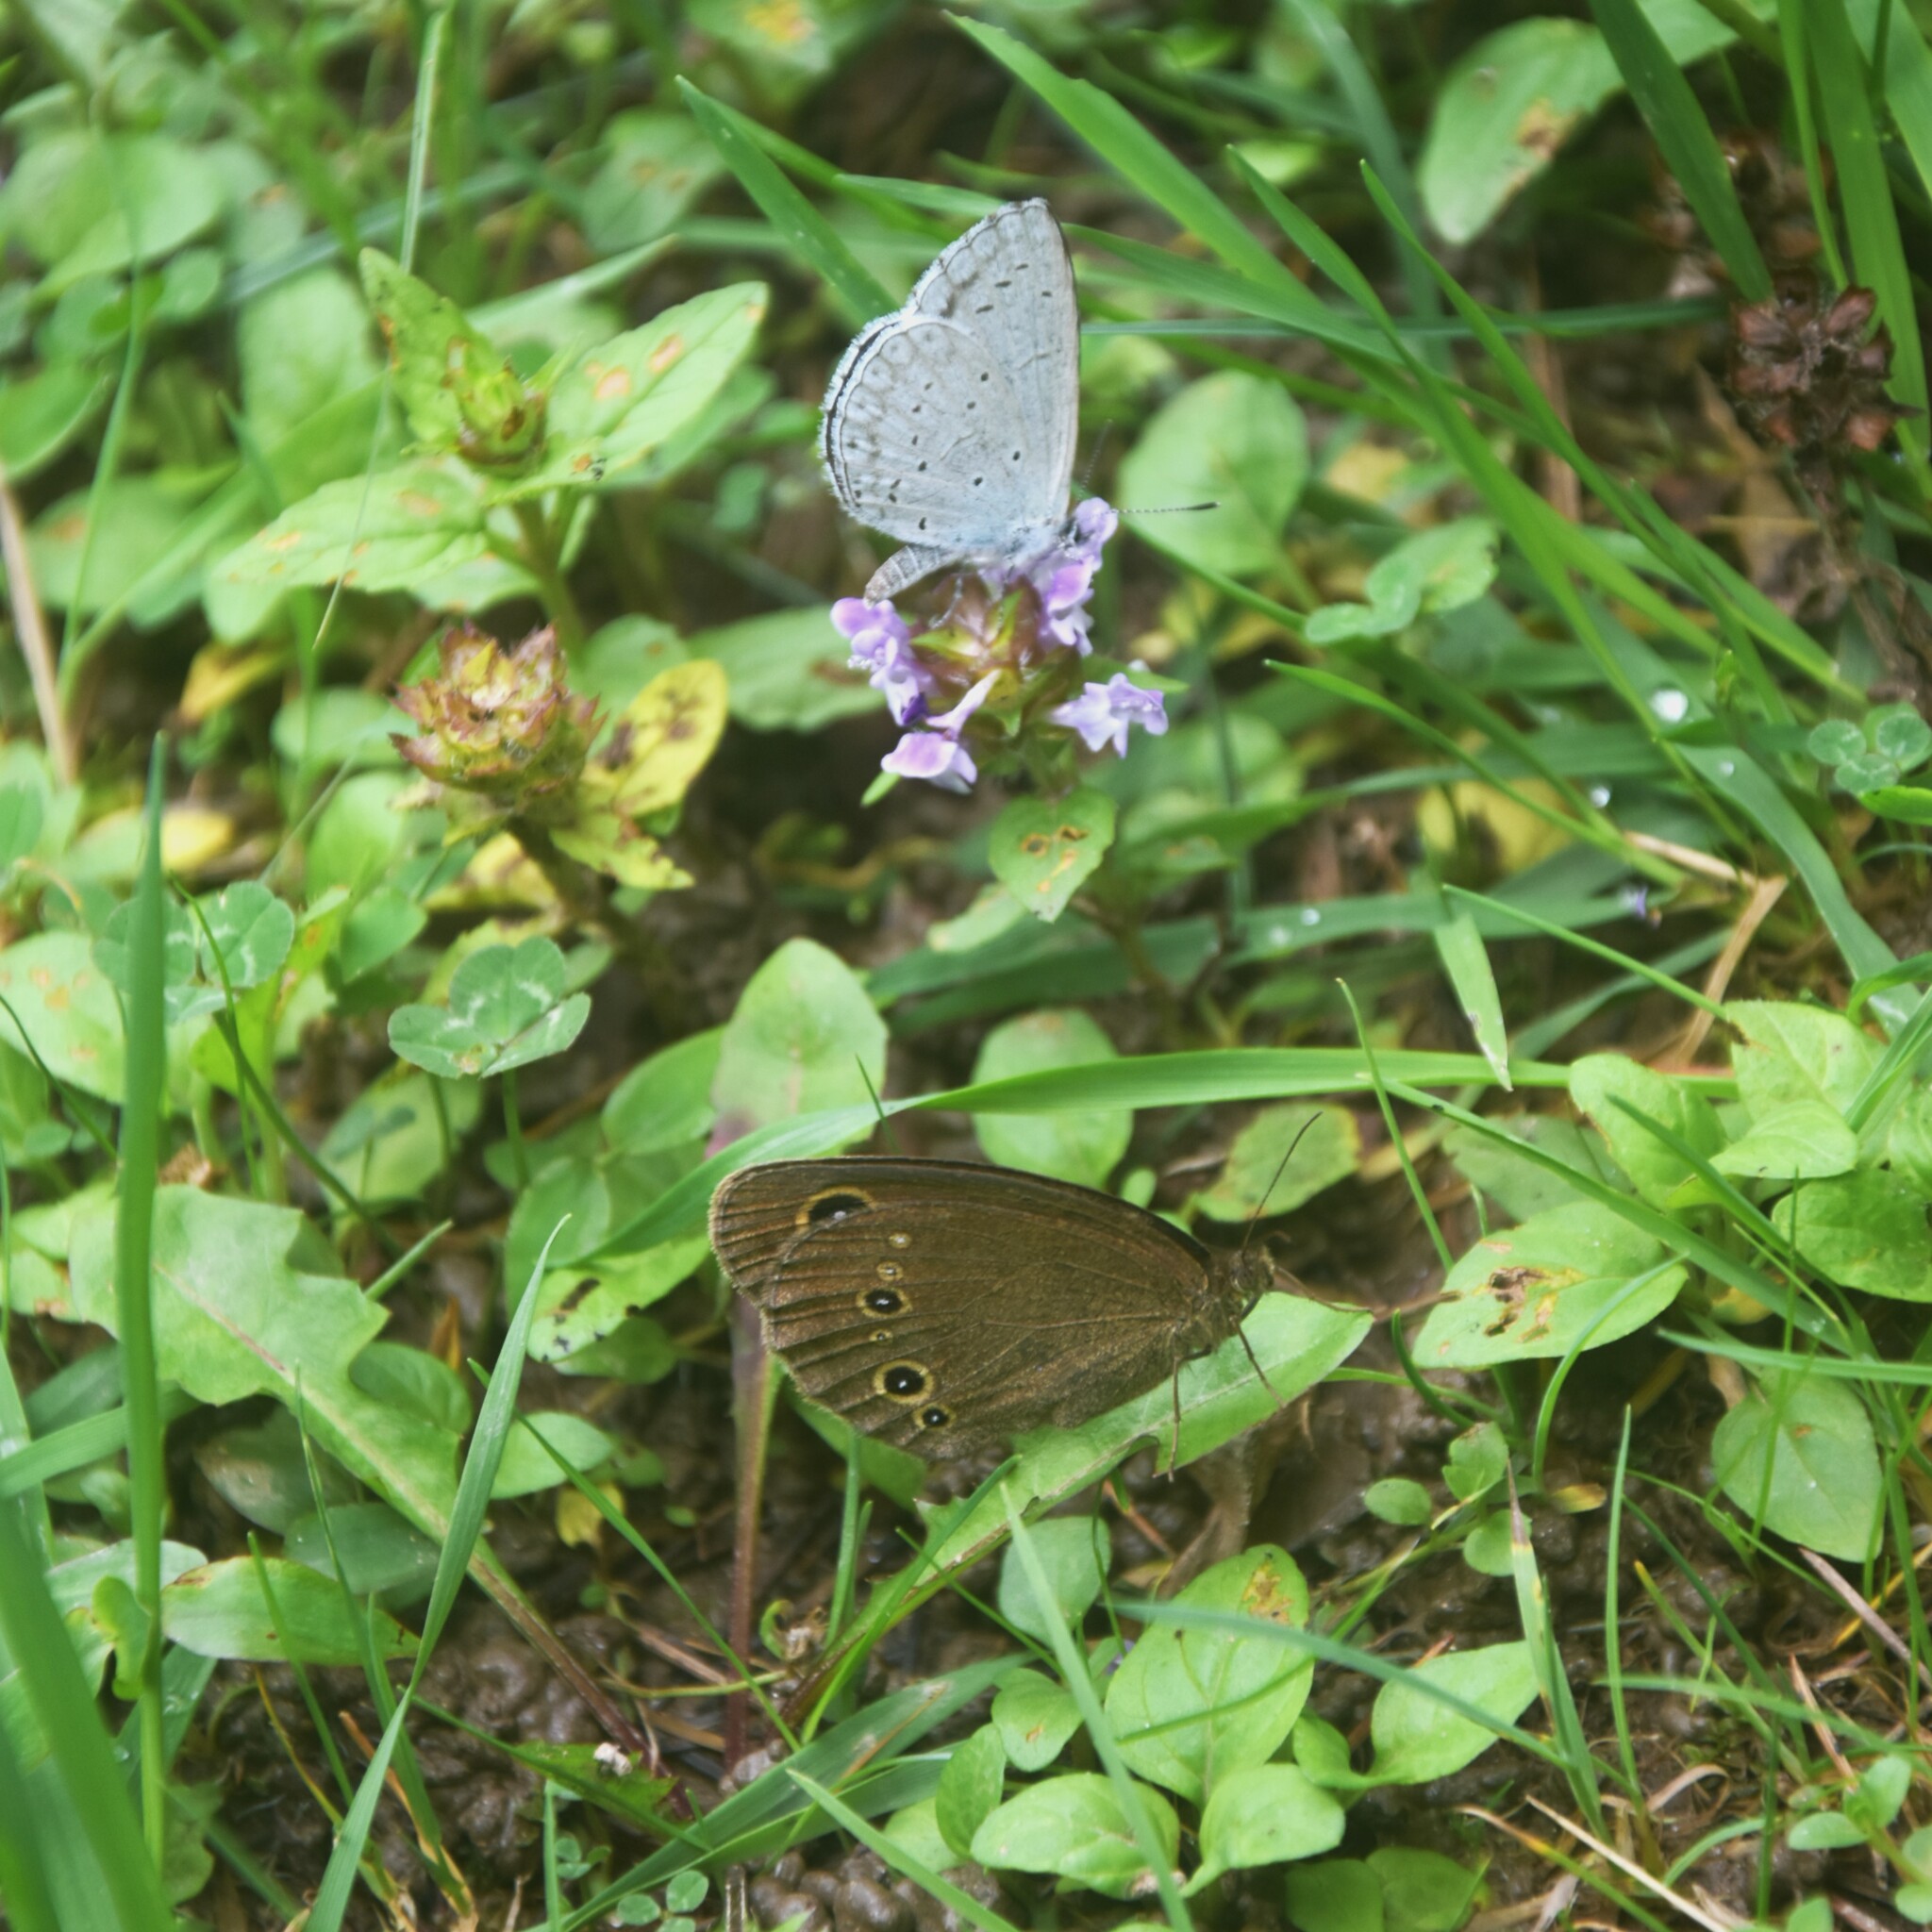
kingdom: Animalia
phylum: Arthropoda
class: Insecta
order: Lepidoptera
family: Nymphalidae
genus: Callerebia
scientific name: Callerebia nirmala
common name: Common argus
